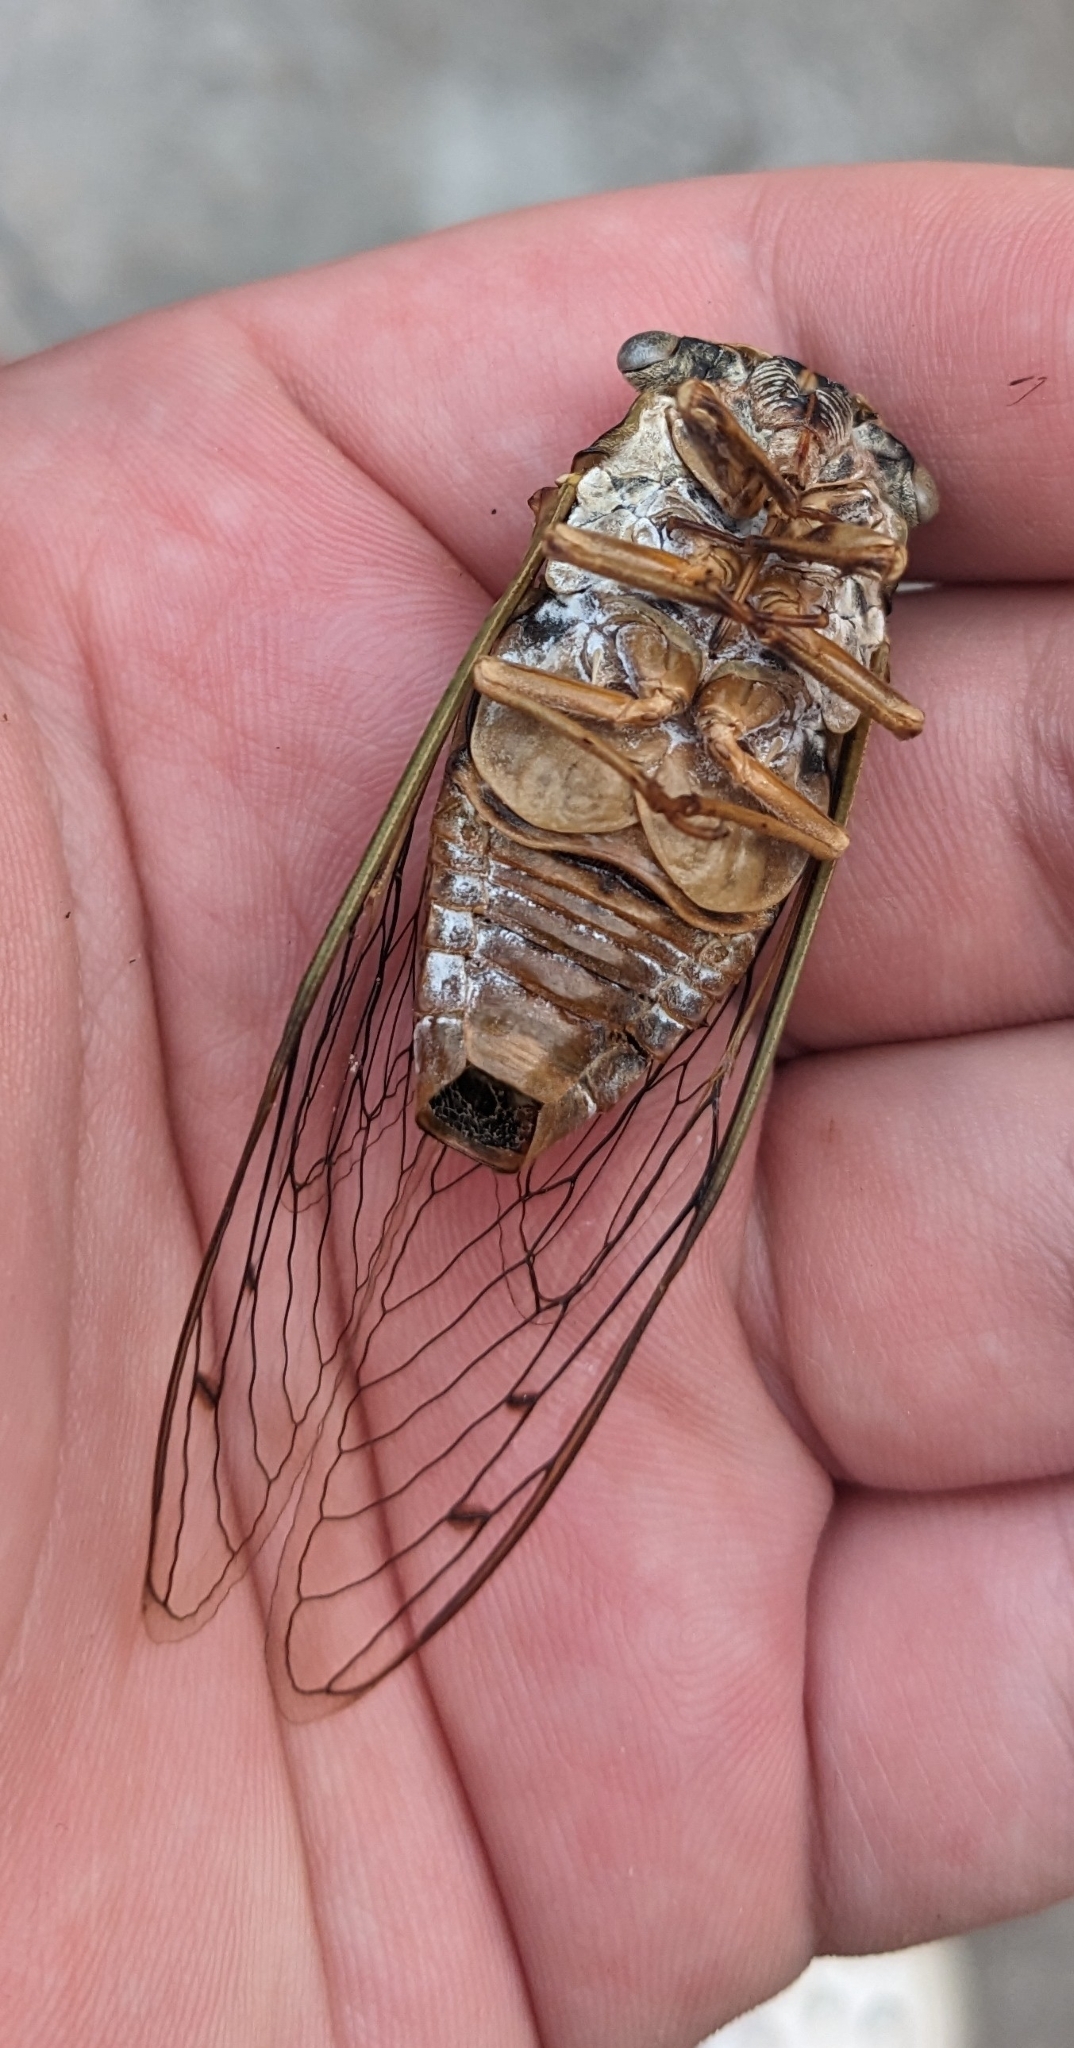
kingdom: Animalia
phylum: Arthropoda
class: Insecta
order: Hemiptera
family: Cicadidae
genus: Megatibicen
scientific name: Megatibicen resh
